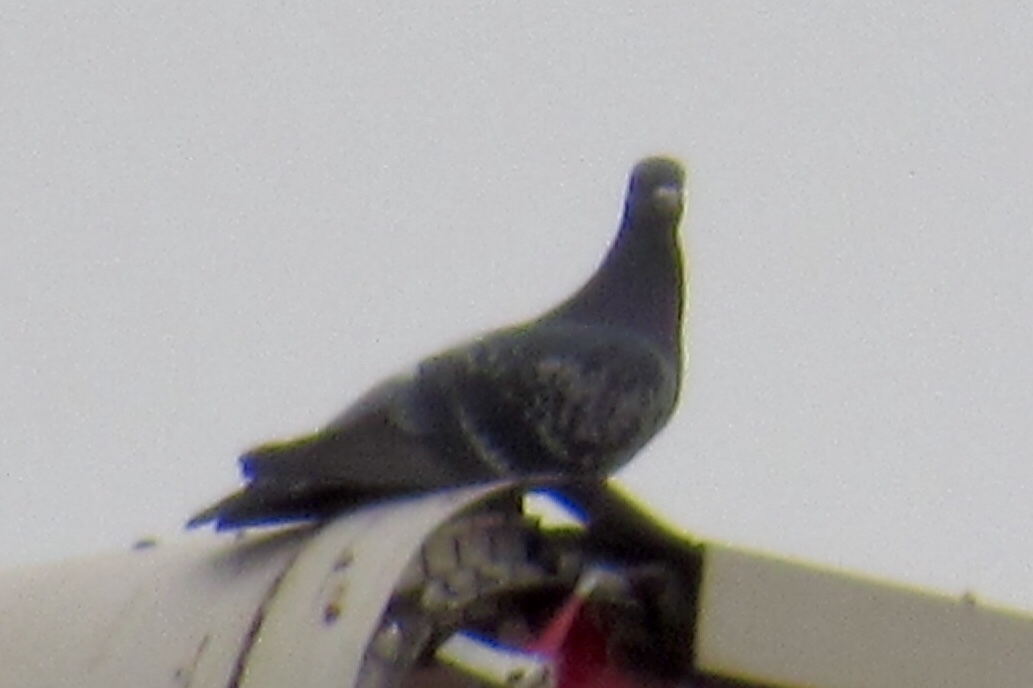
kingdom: Animalia
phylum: Chordata
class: Aves
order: Columbiformes
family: Columbidae
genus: Columba
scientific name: Columba livia
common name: Rock pigeon
